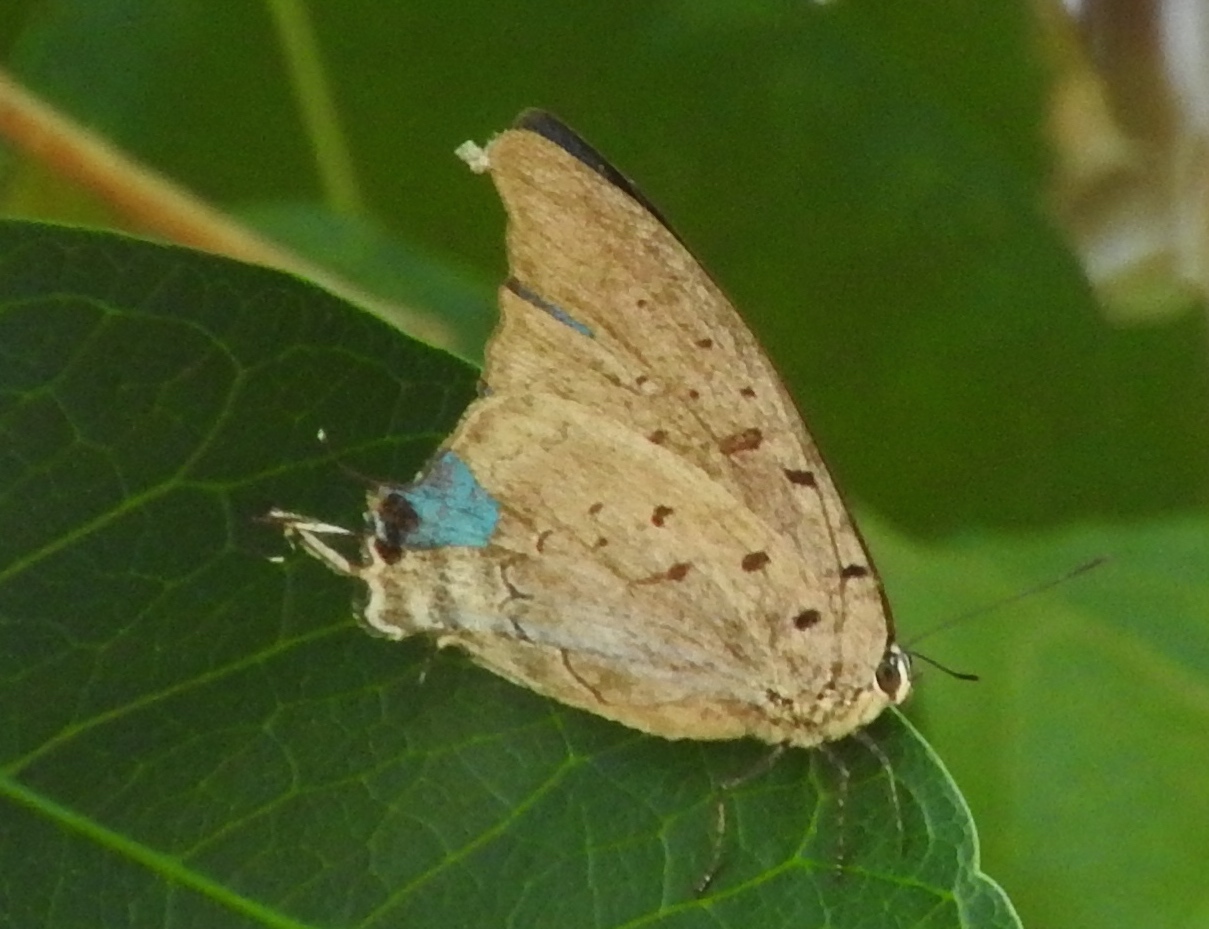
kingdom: Animalia
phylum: Arthropoda
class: Insecta
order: Lepidoptera
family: Lycaenidae
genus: Pseudolycaena
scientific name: Pseudolycaena damo
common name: Sky-blue hairstreak
